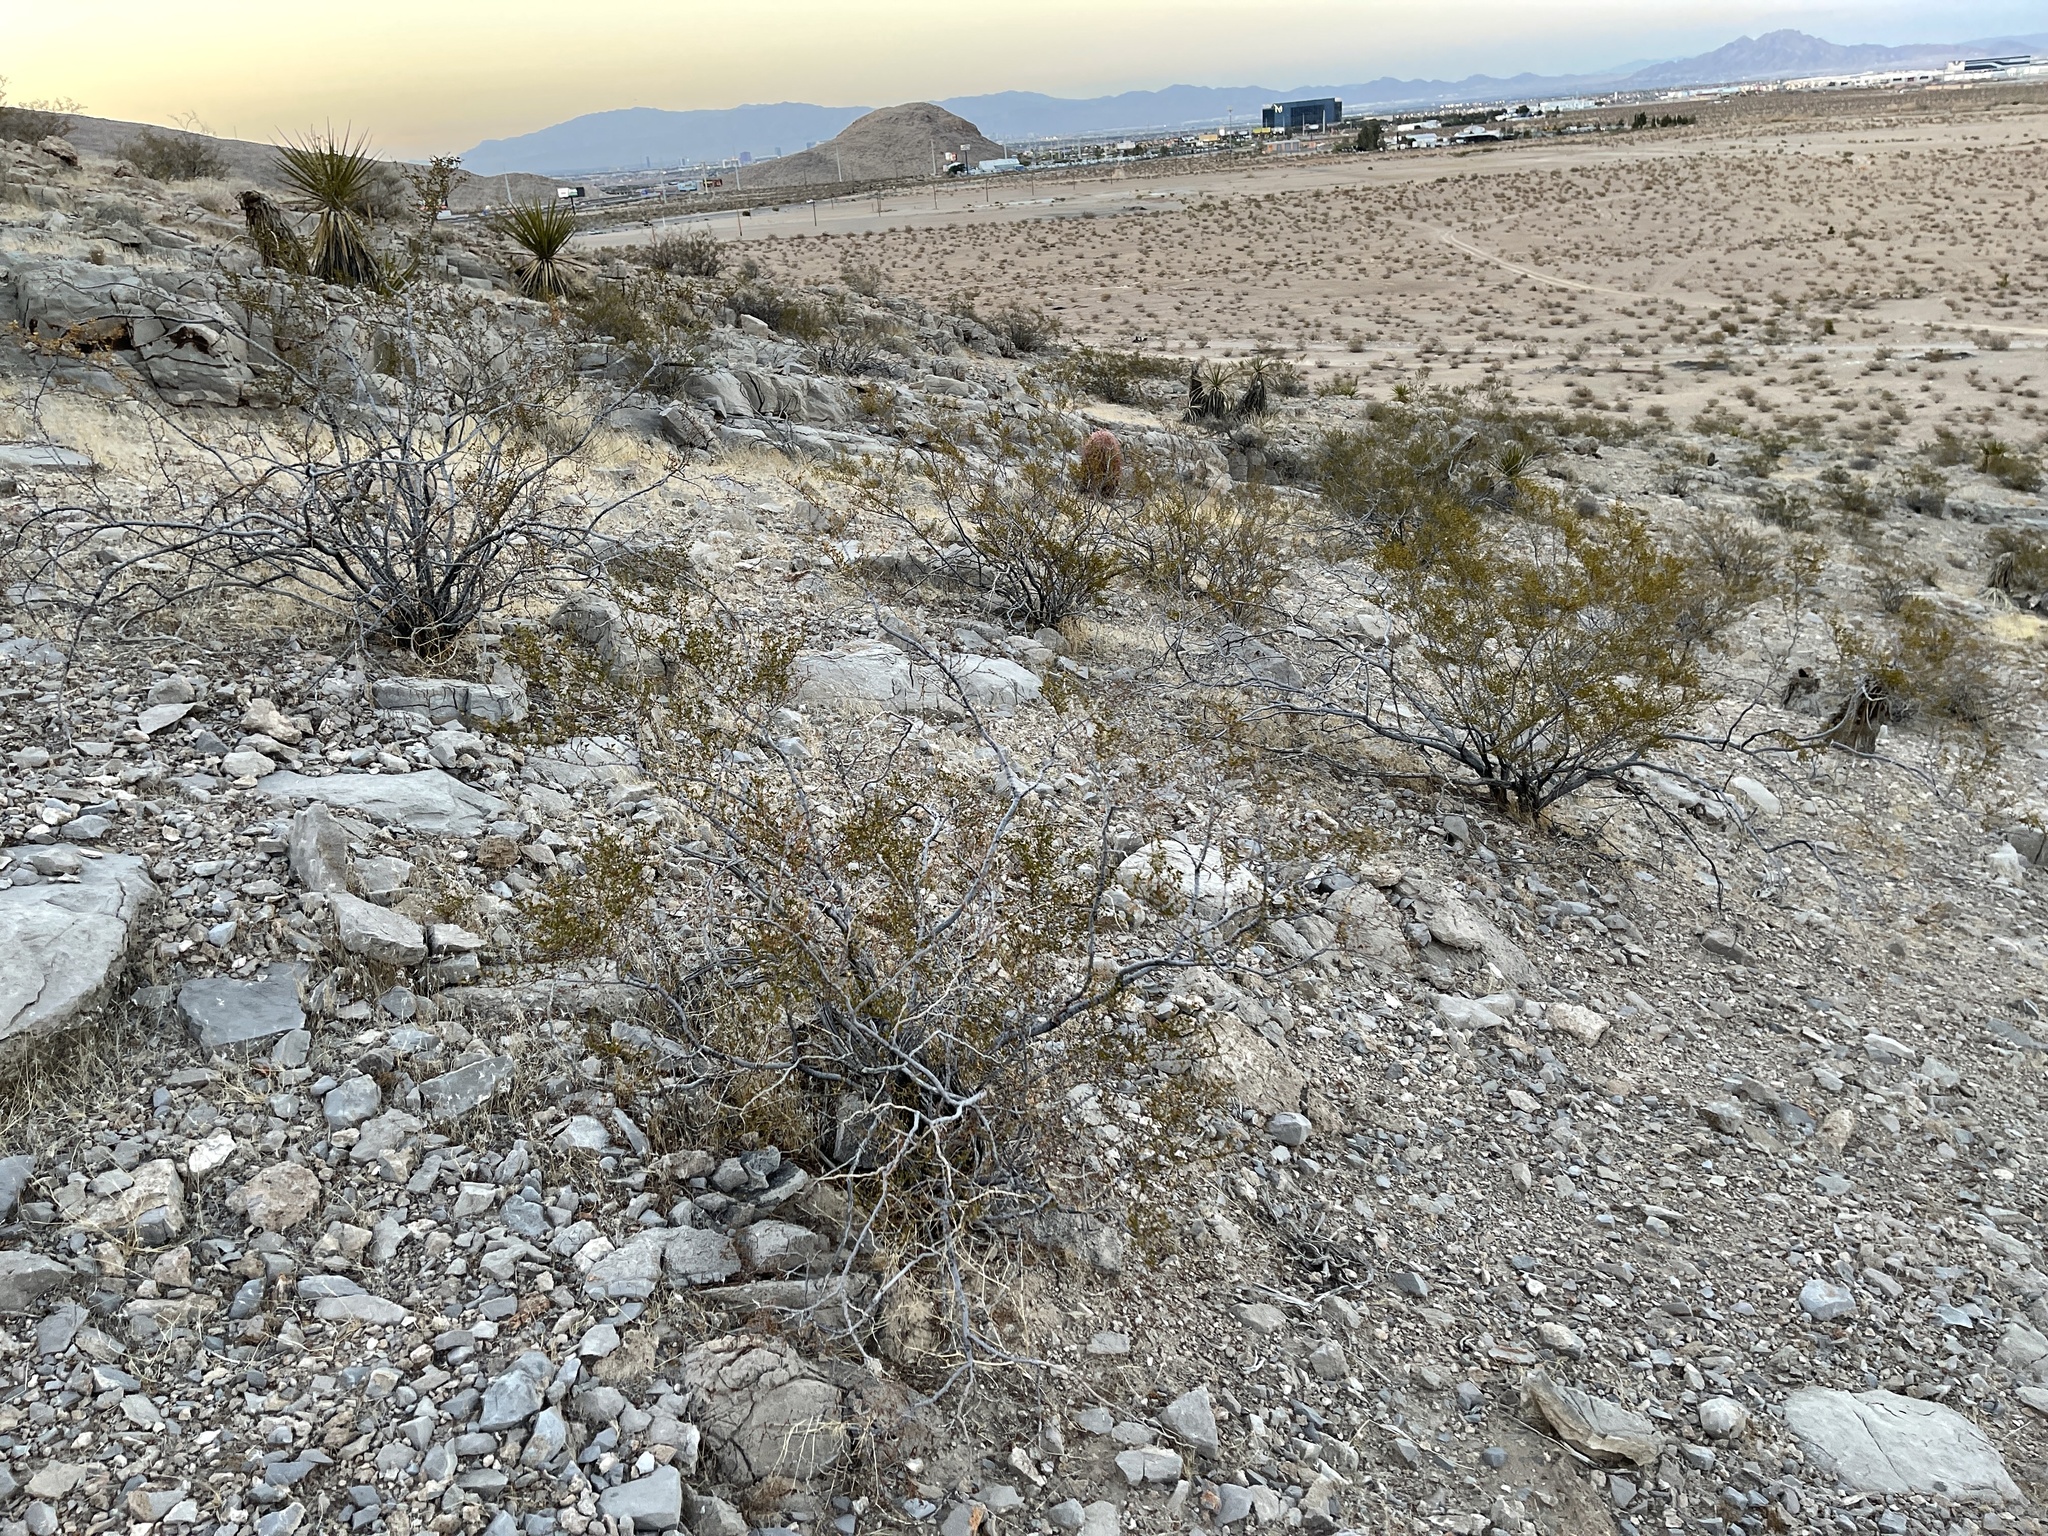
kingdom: Plantae
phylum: Tracheophyta
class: Magnoliopsida
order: Zygophyllales
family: Zygophyllaceae
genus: Larrea
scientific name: Larrea tridentata
